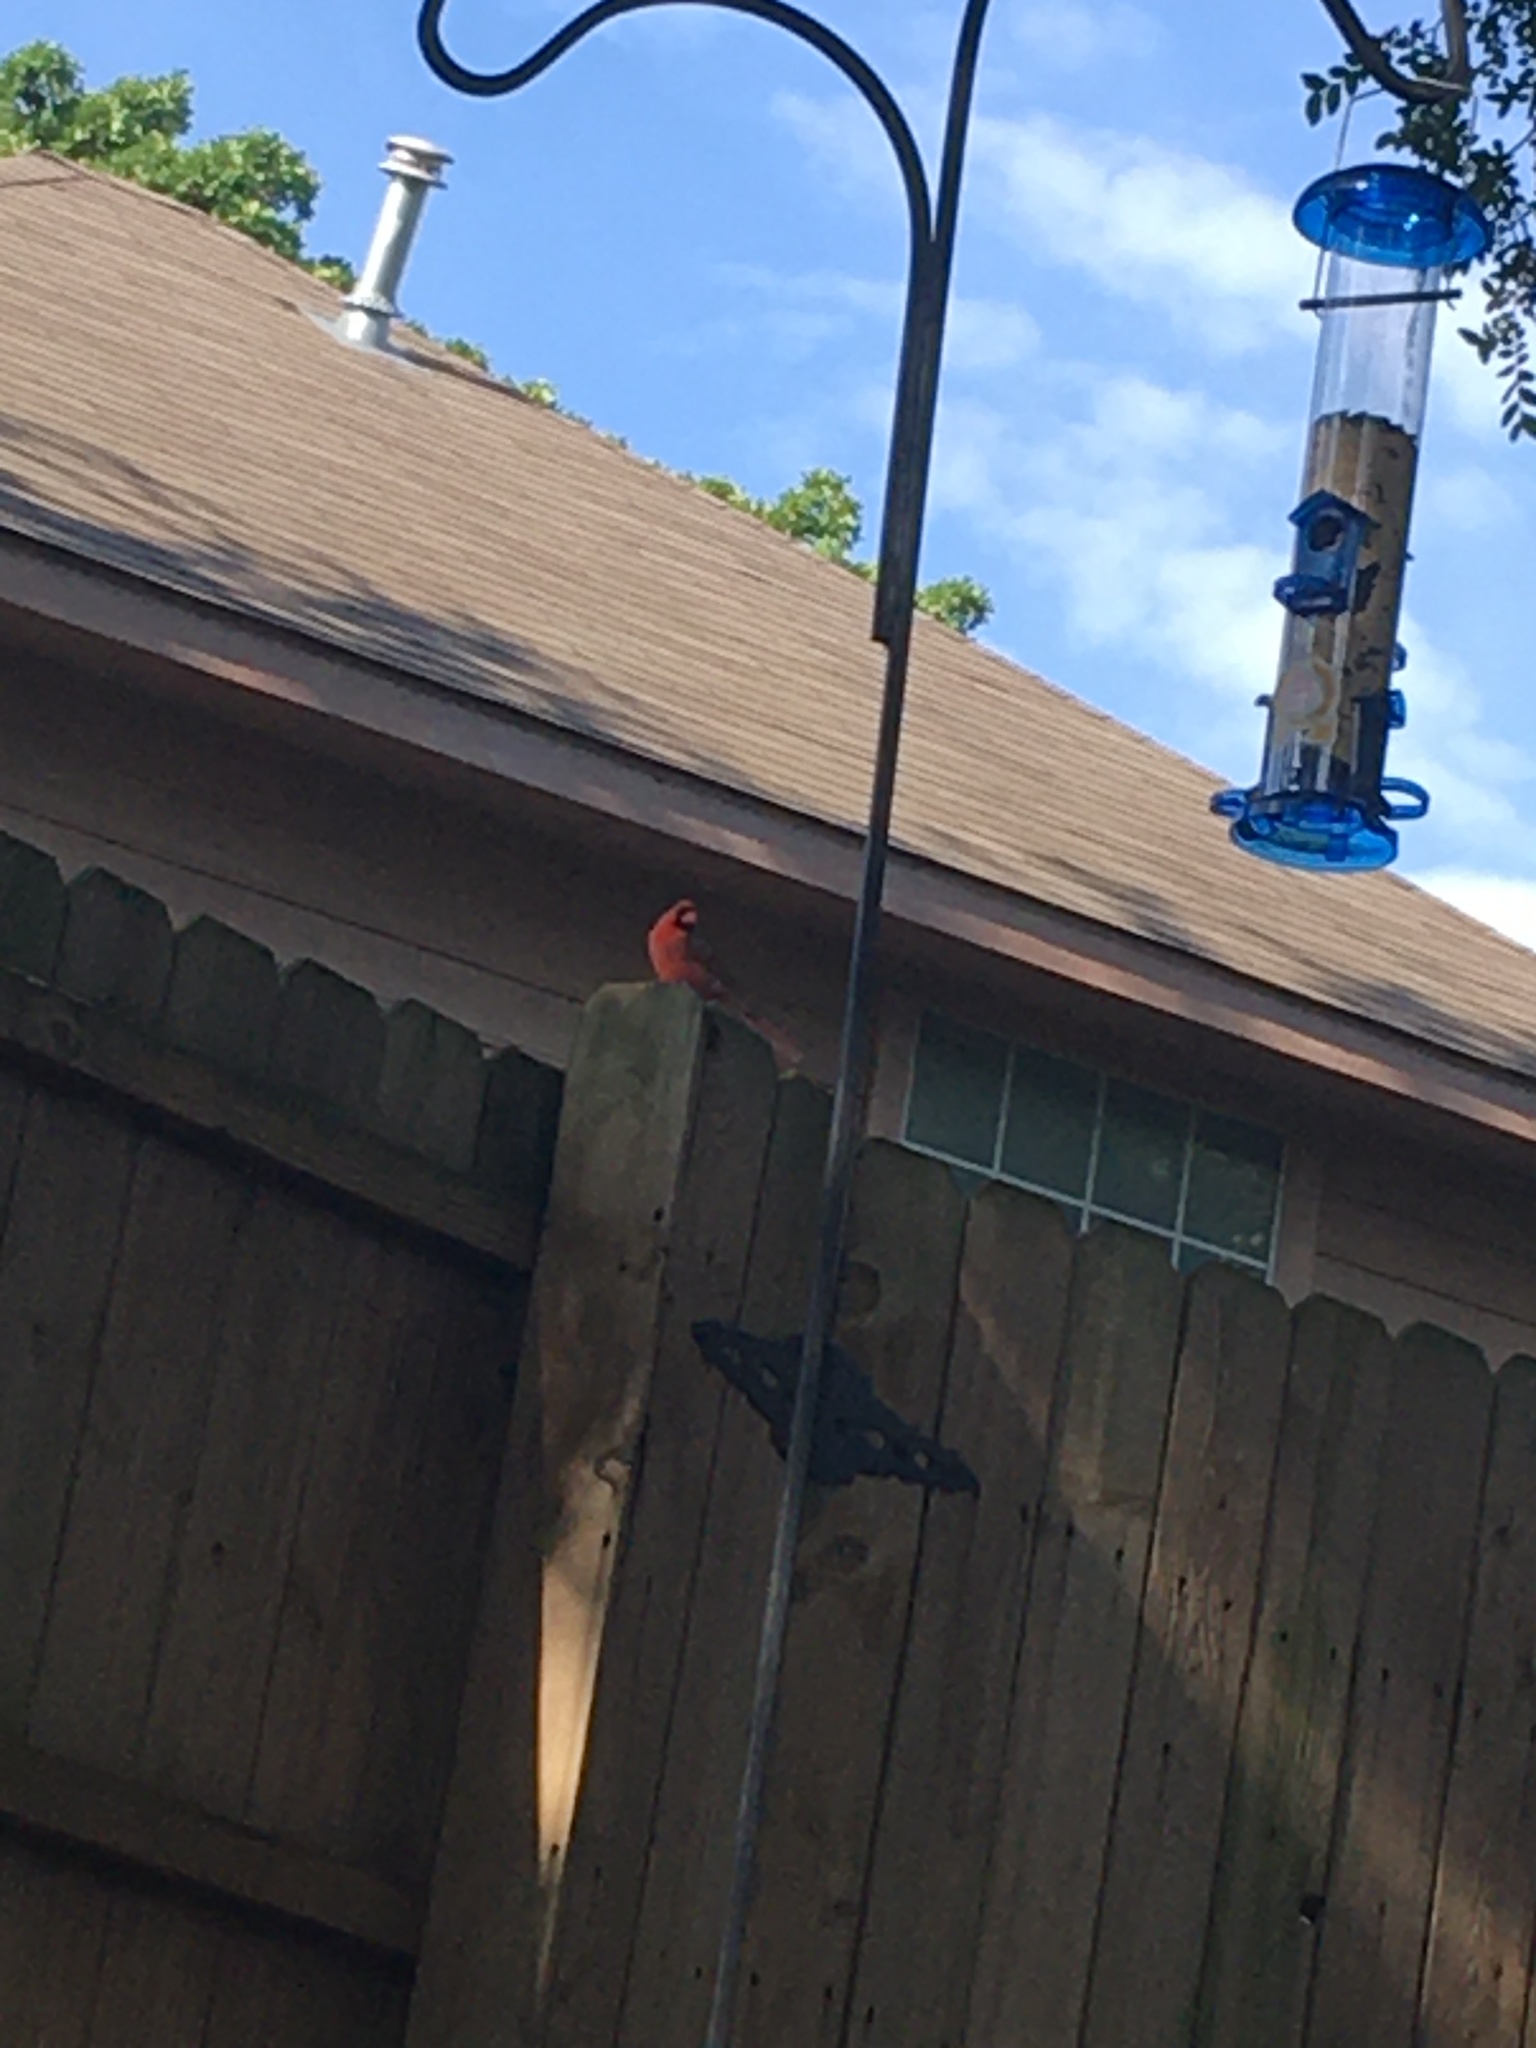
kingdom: Animalia
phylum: Chordata
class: Aves
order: Passeriformes
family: Cardinalidae
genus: Cardinalis
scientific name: Cardinalis cardinalis
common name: Northern cardinal
